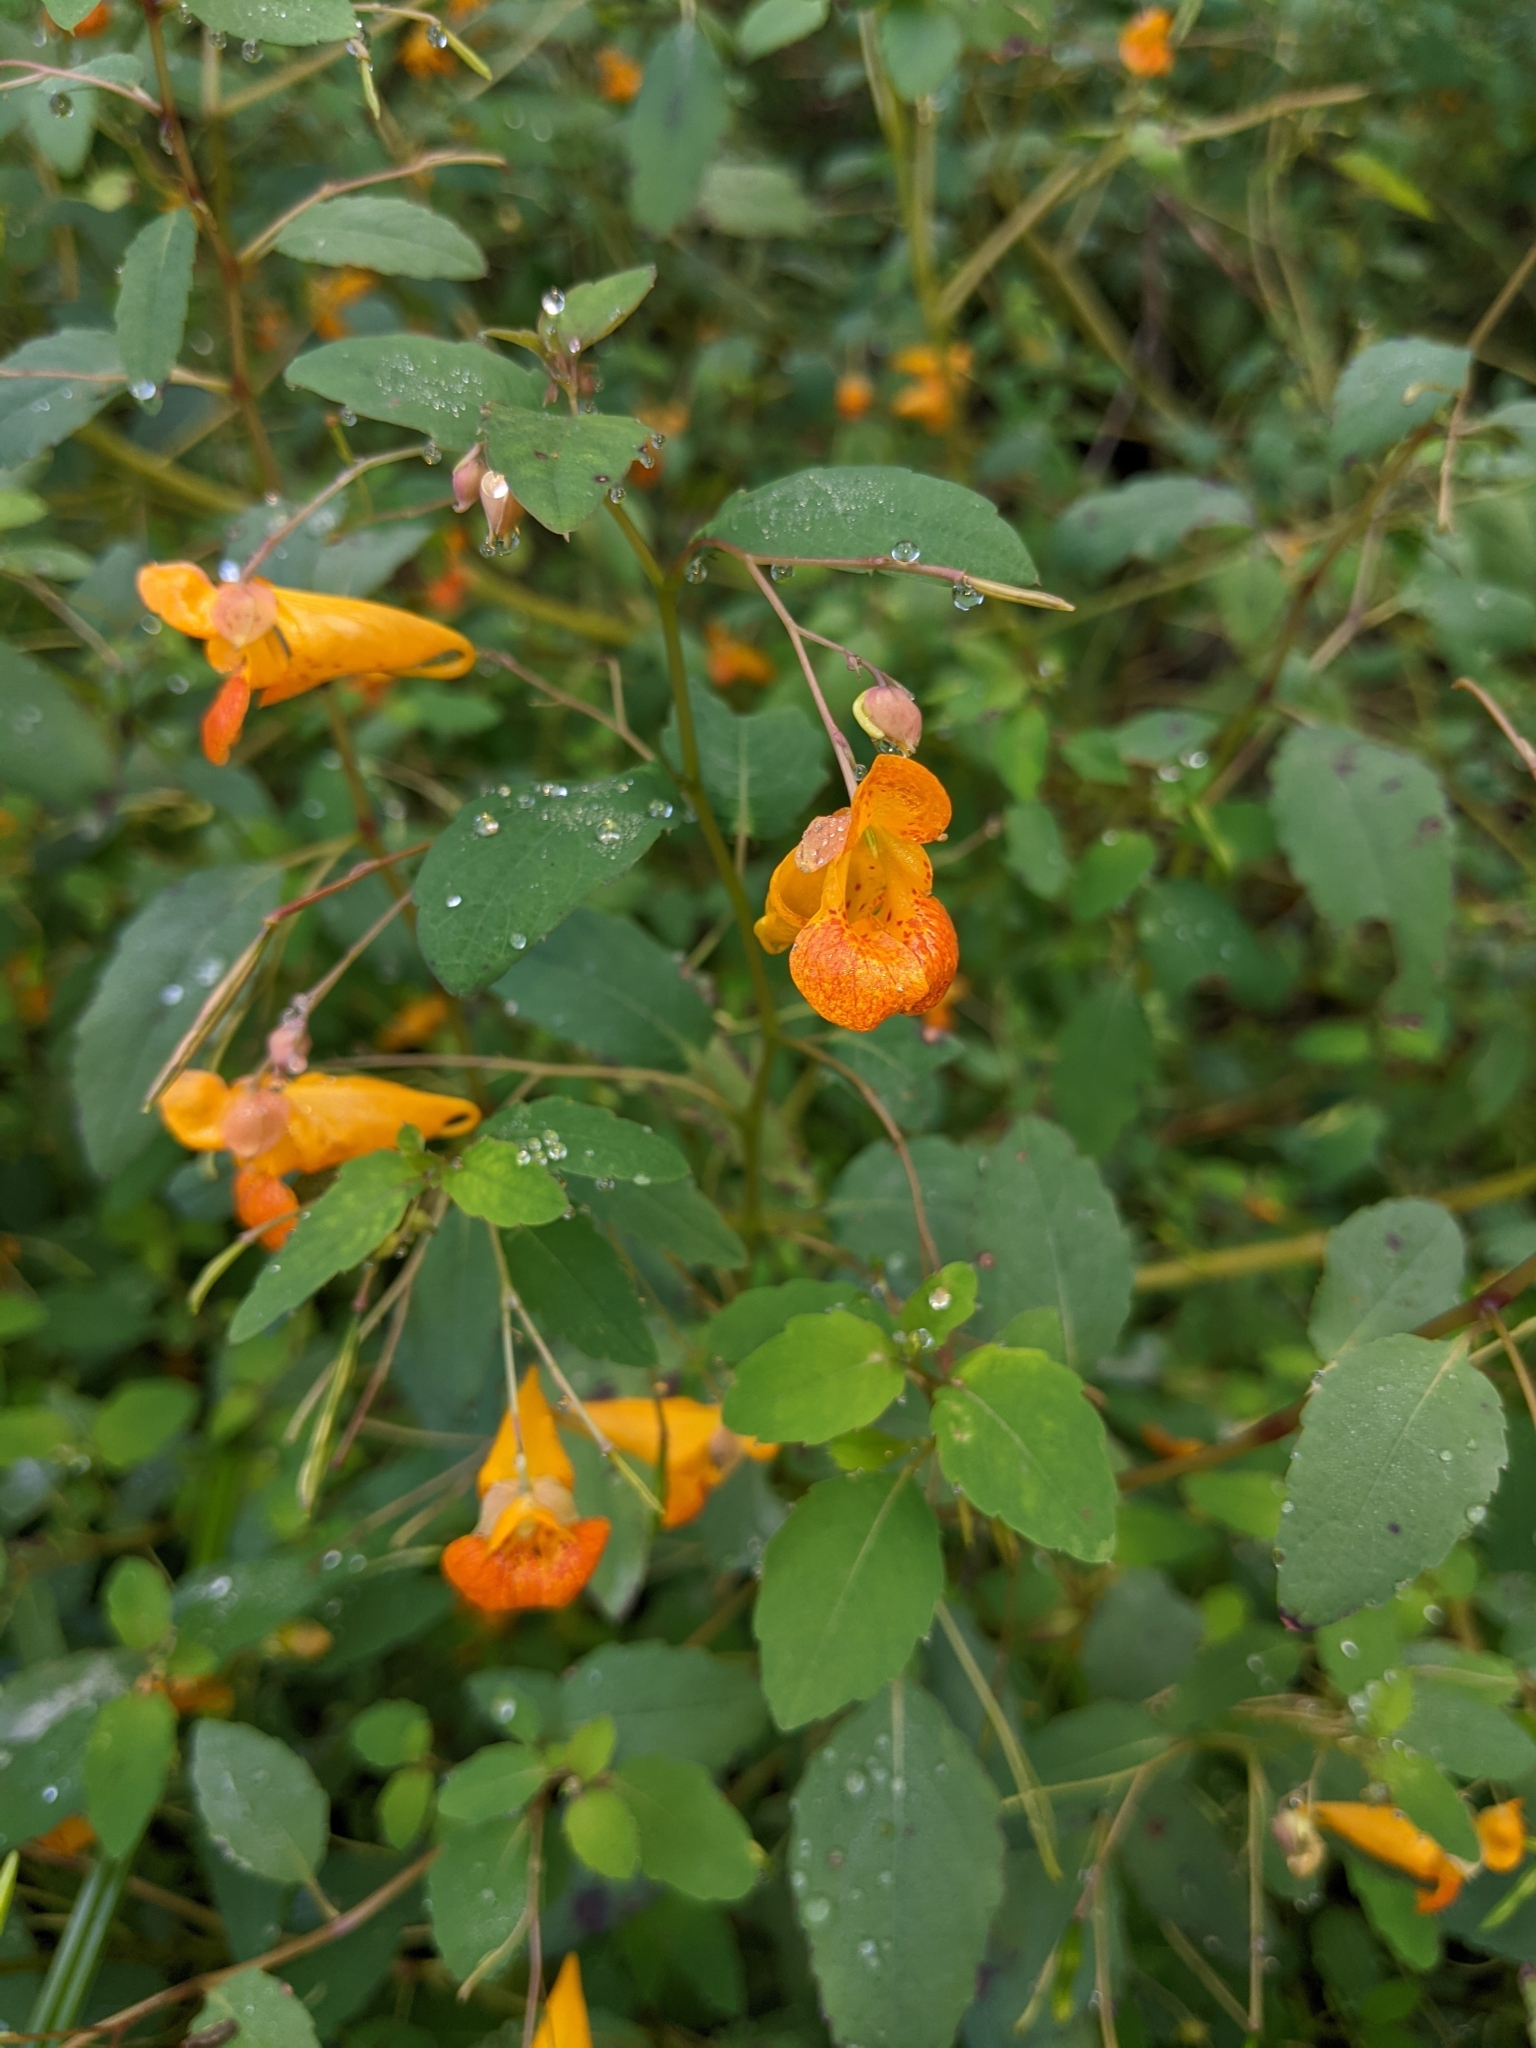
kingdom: Plantae
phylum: Tracheophyta
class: Magnoliopsida
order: Ericales
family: Balsaminaceae
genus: Impatiens
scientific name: Impatiens capensis
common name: Orange balsam
